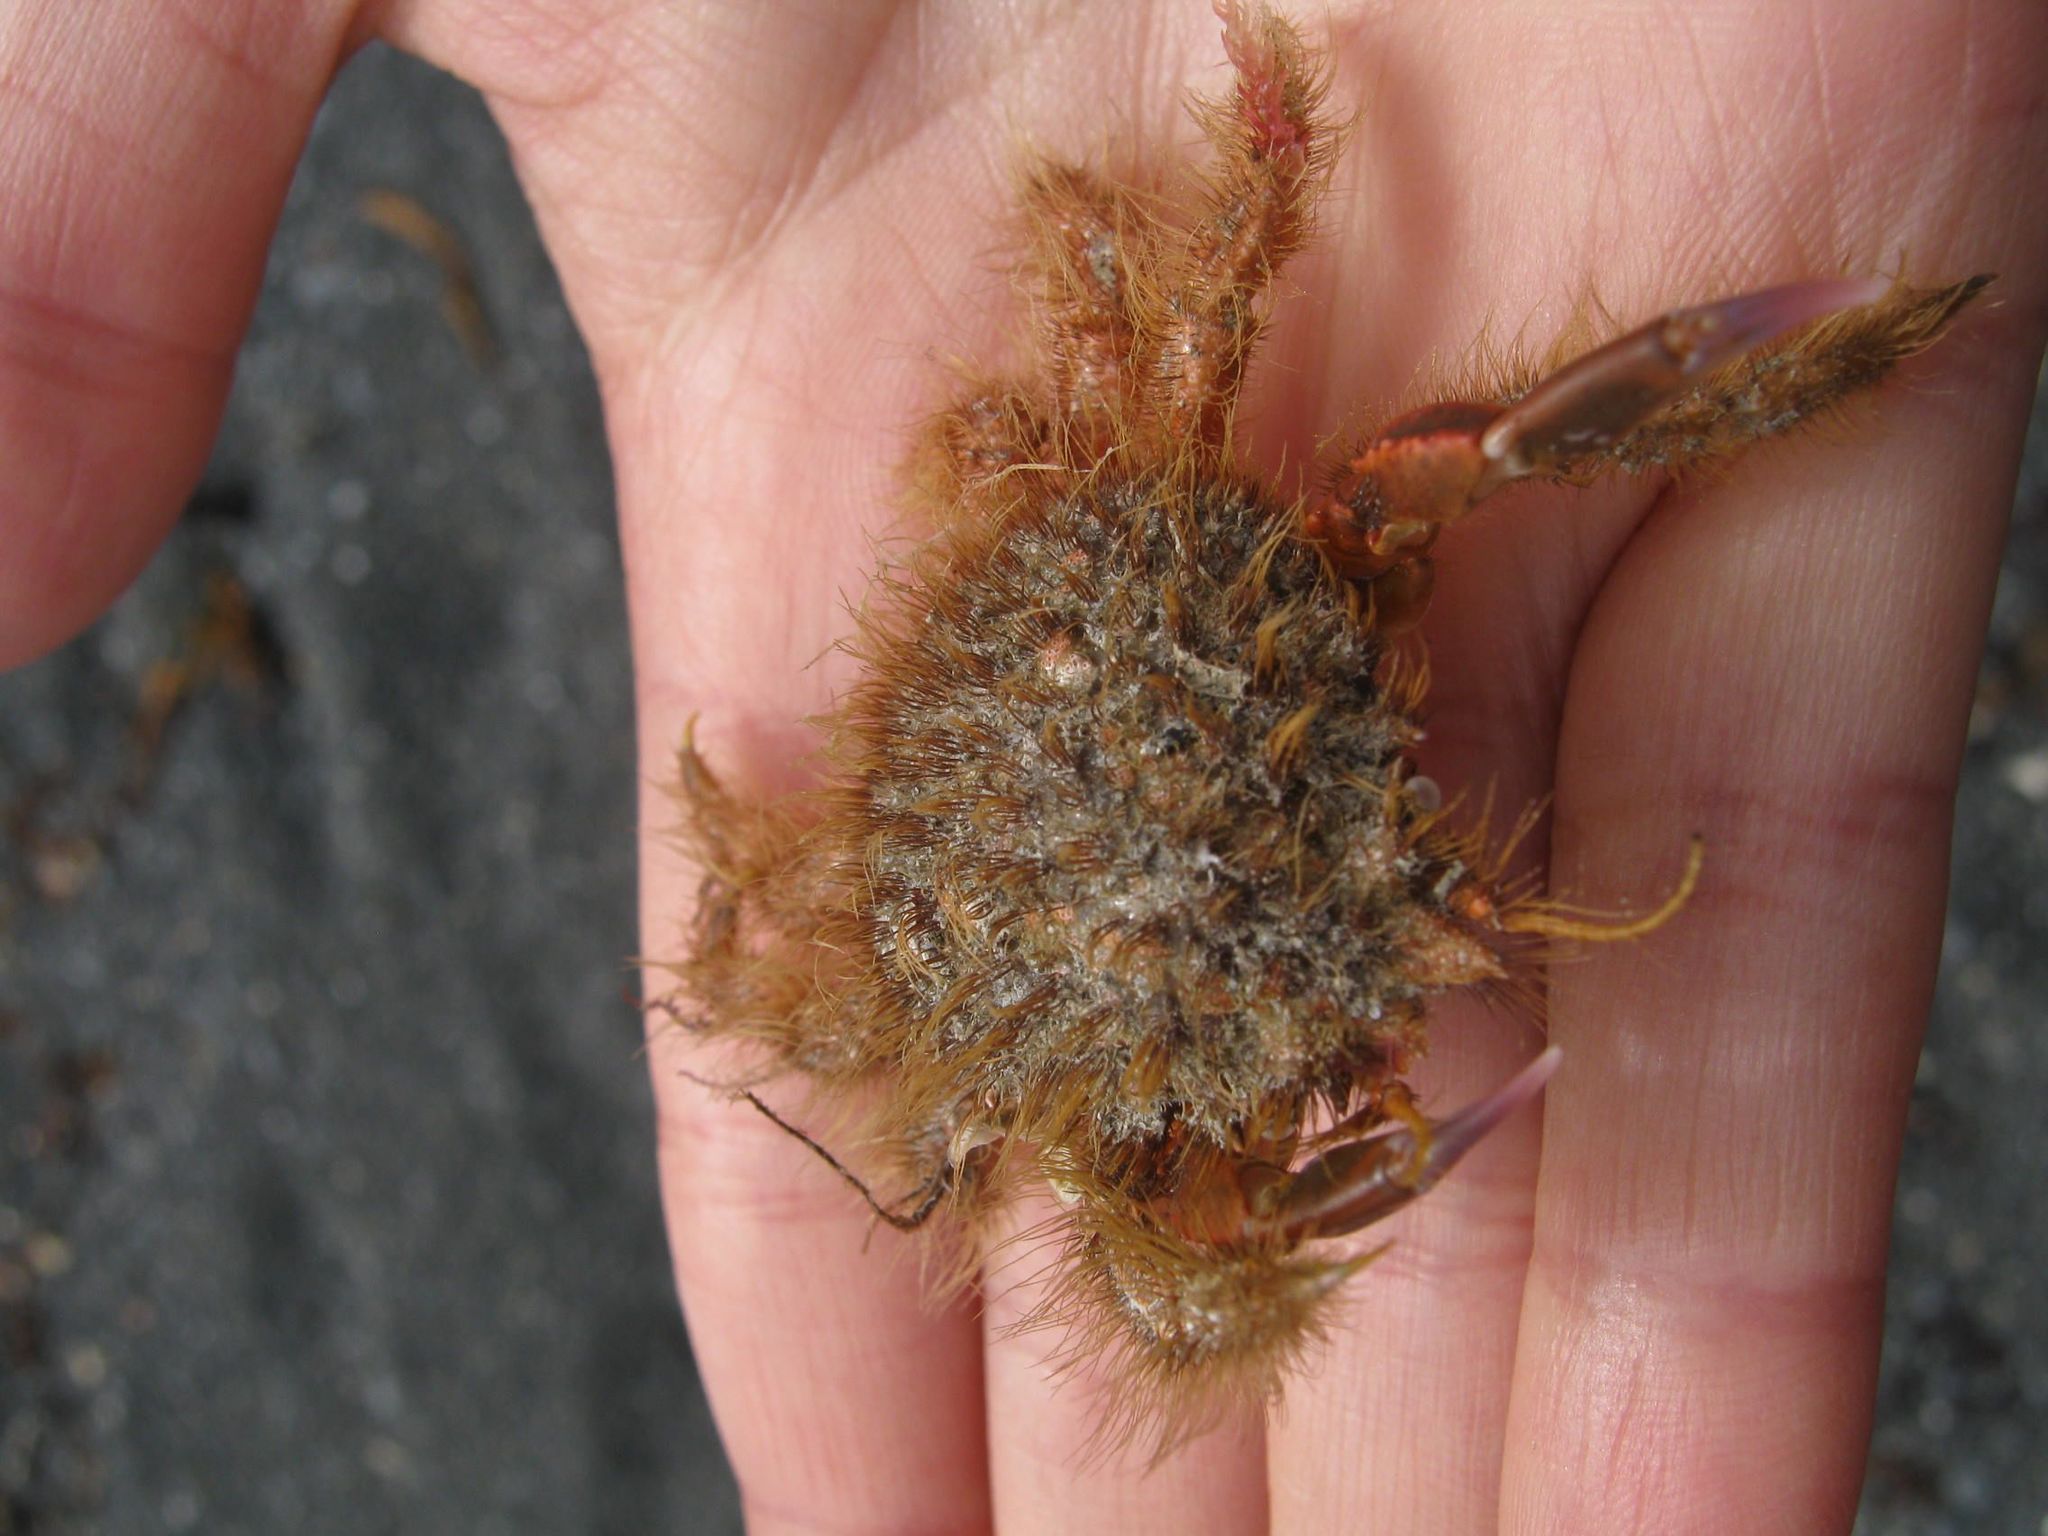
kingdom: Animalia
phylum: Arthropoda
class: Malacostraca
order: Decapoda
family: Majidae
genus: Notomithrax
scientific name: Notomithrax ursus
